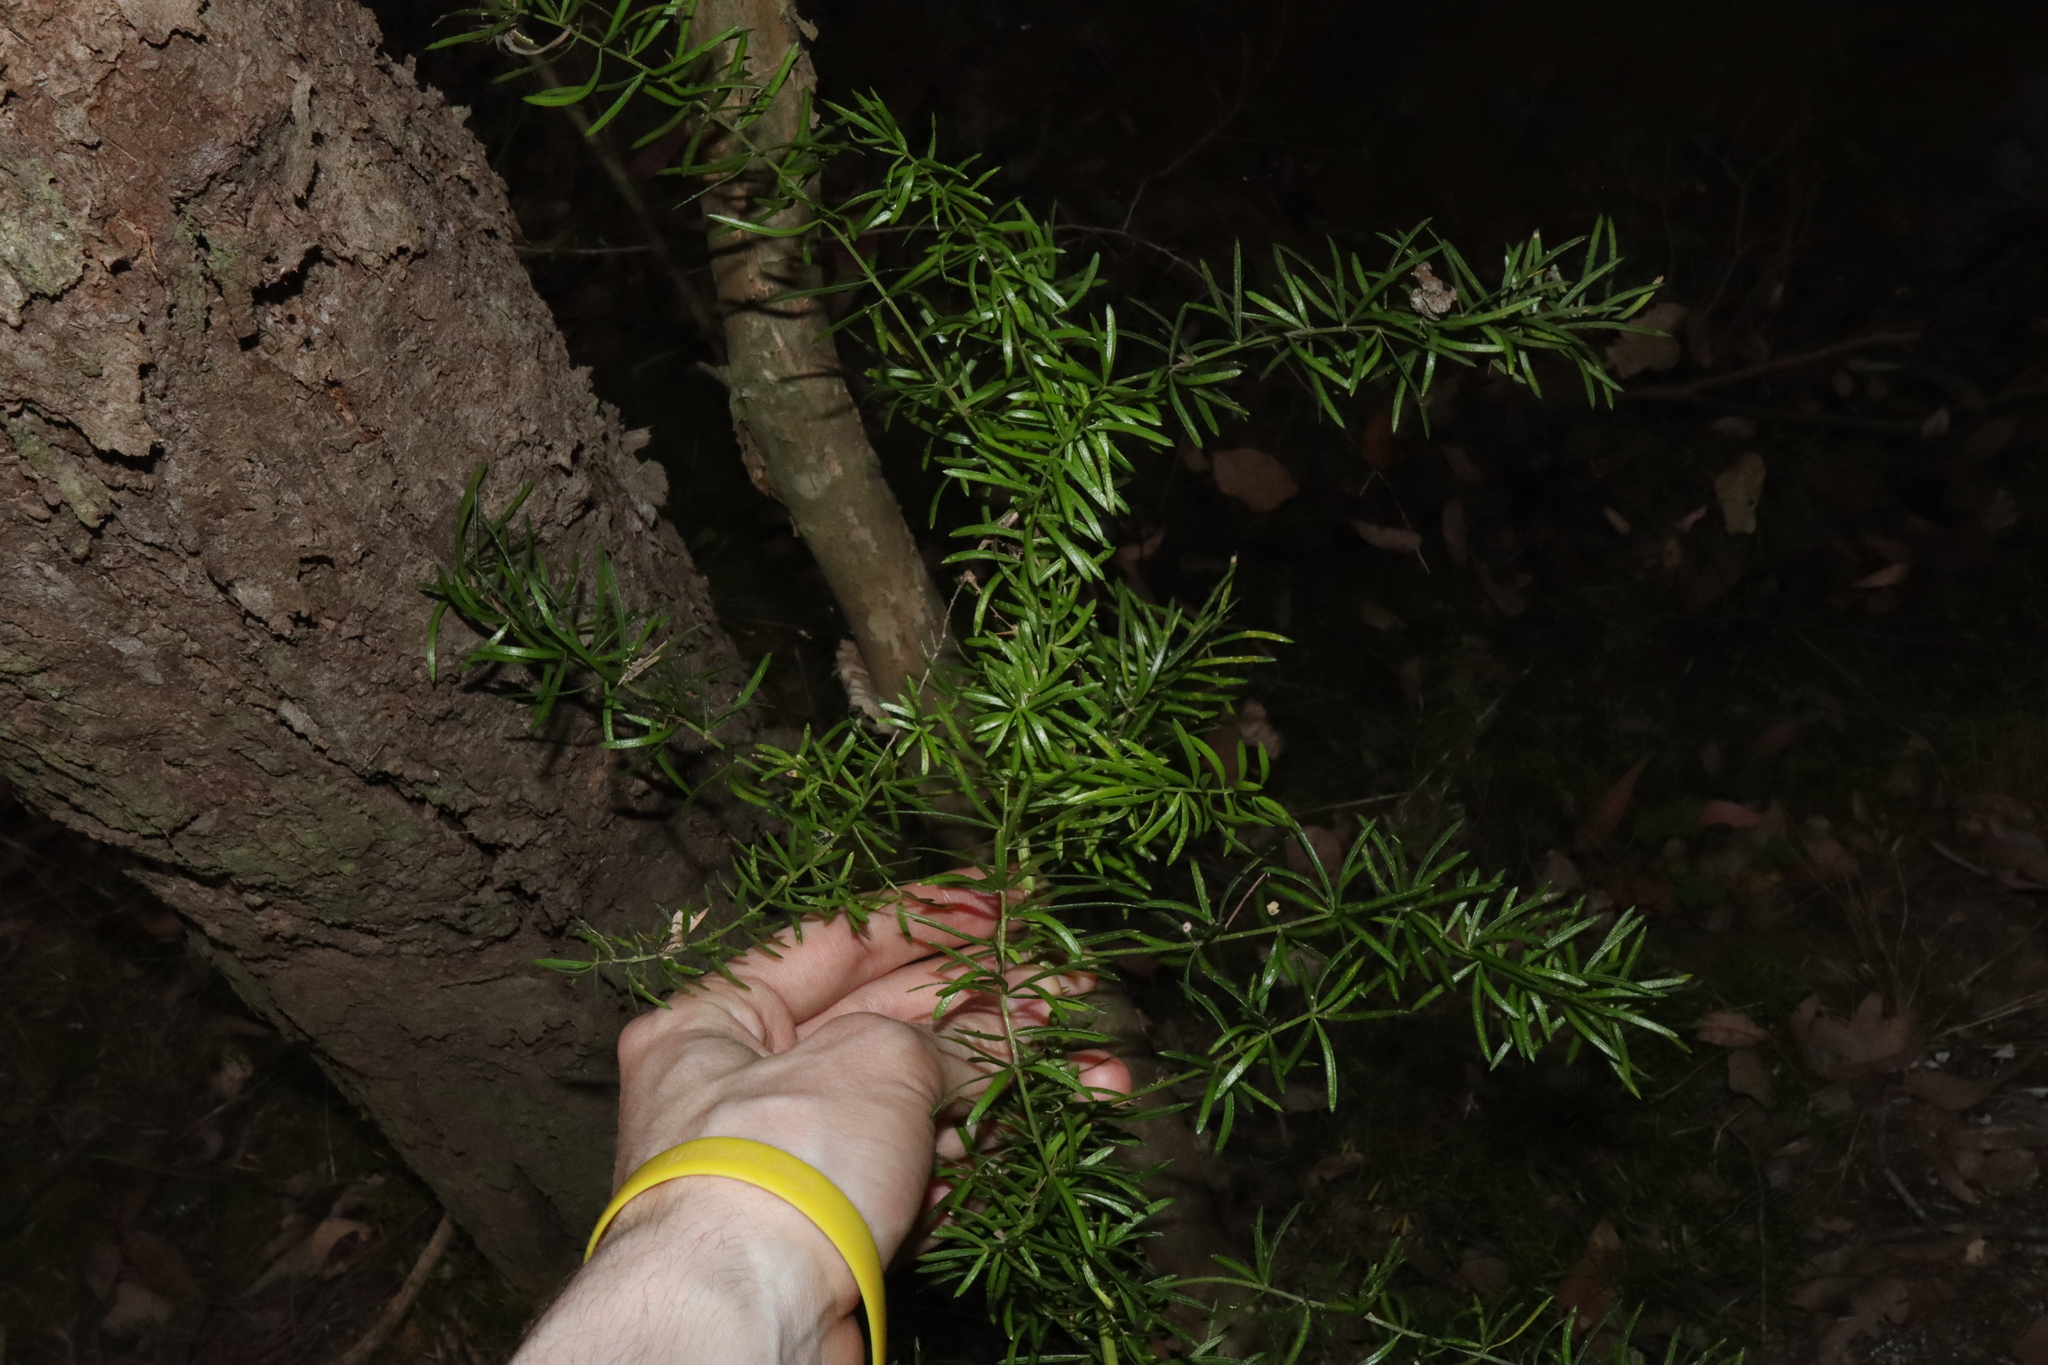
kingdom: Plantae
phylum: Tracheophyta
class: Liliopsida
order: Asparagales
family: Asparagaceae
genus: Asparagus
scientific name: Asparagus aethiopicus
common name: Sprenger's asparagus fern
